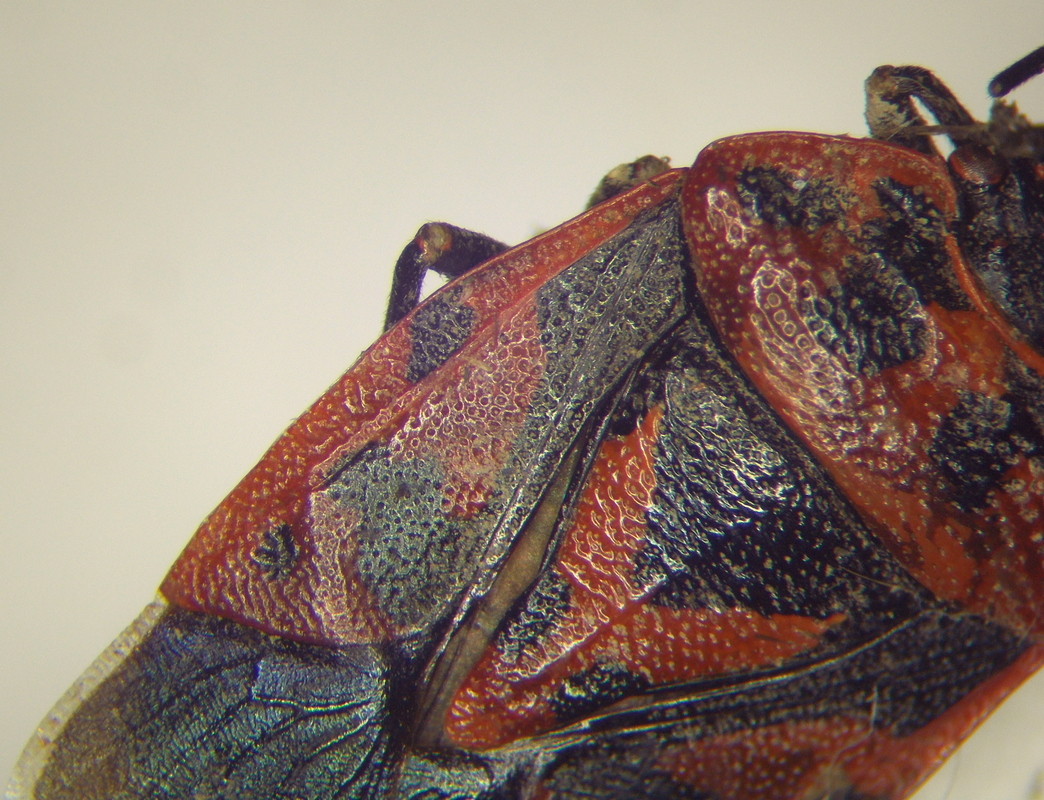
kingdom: Animalia
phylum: Arthropoda
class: Insecta
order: Hemiptera
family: Pentatomidae
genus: Eurydema
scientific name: Eurydema ventralis
